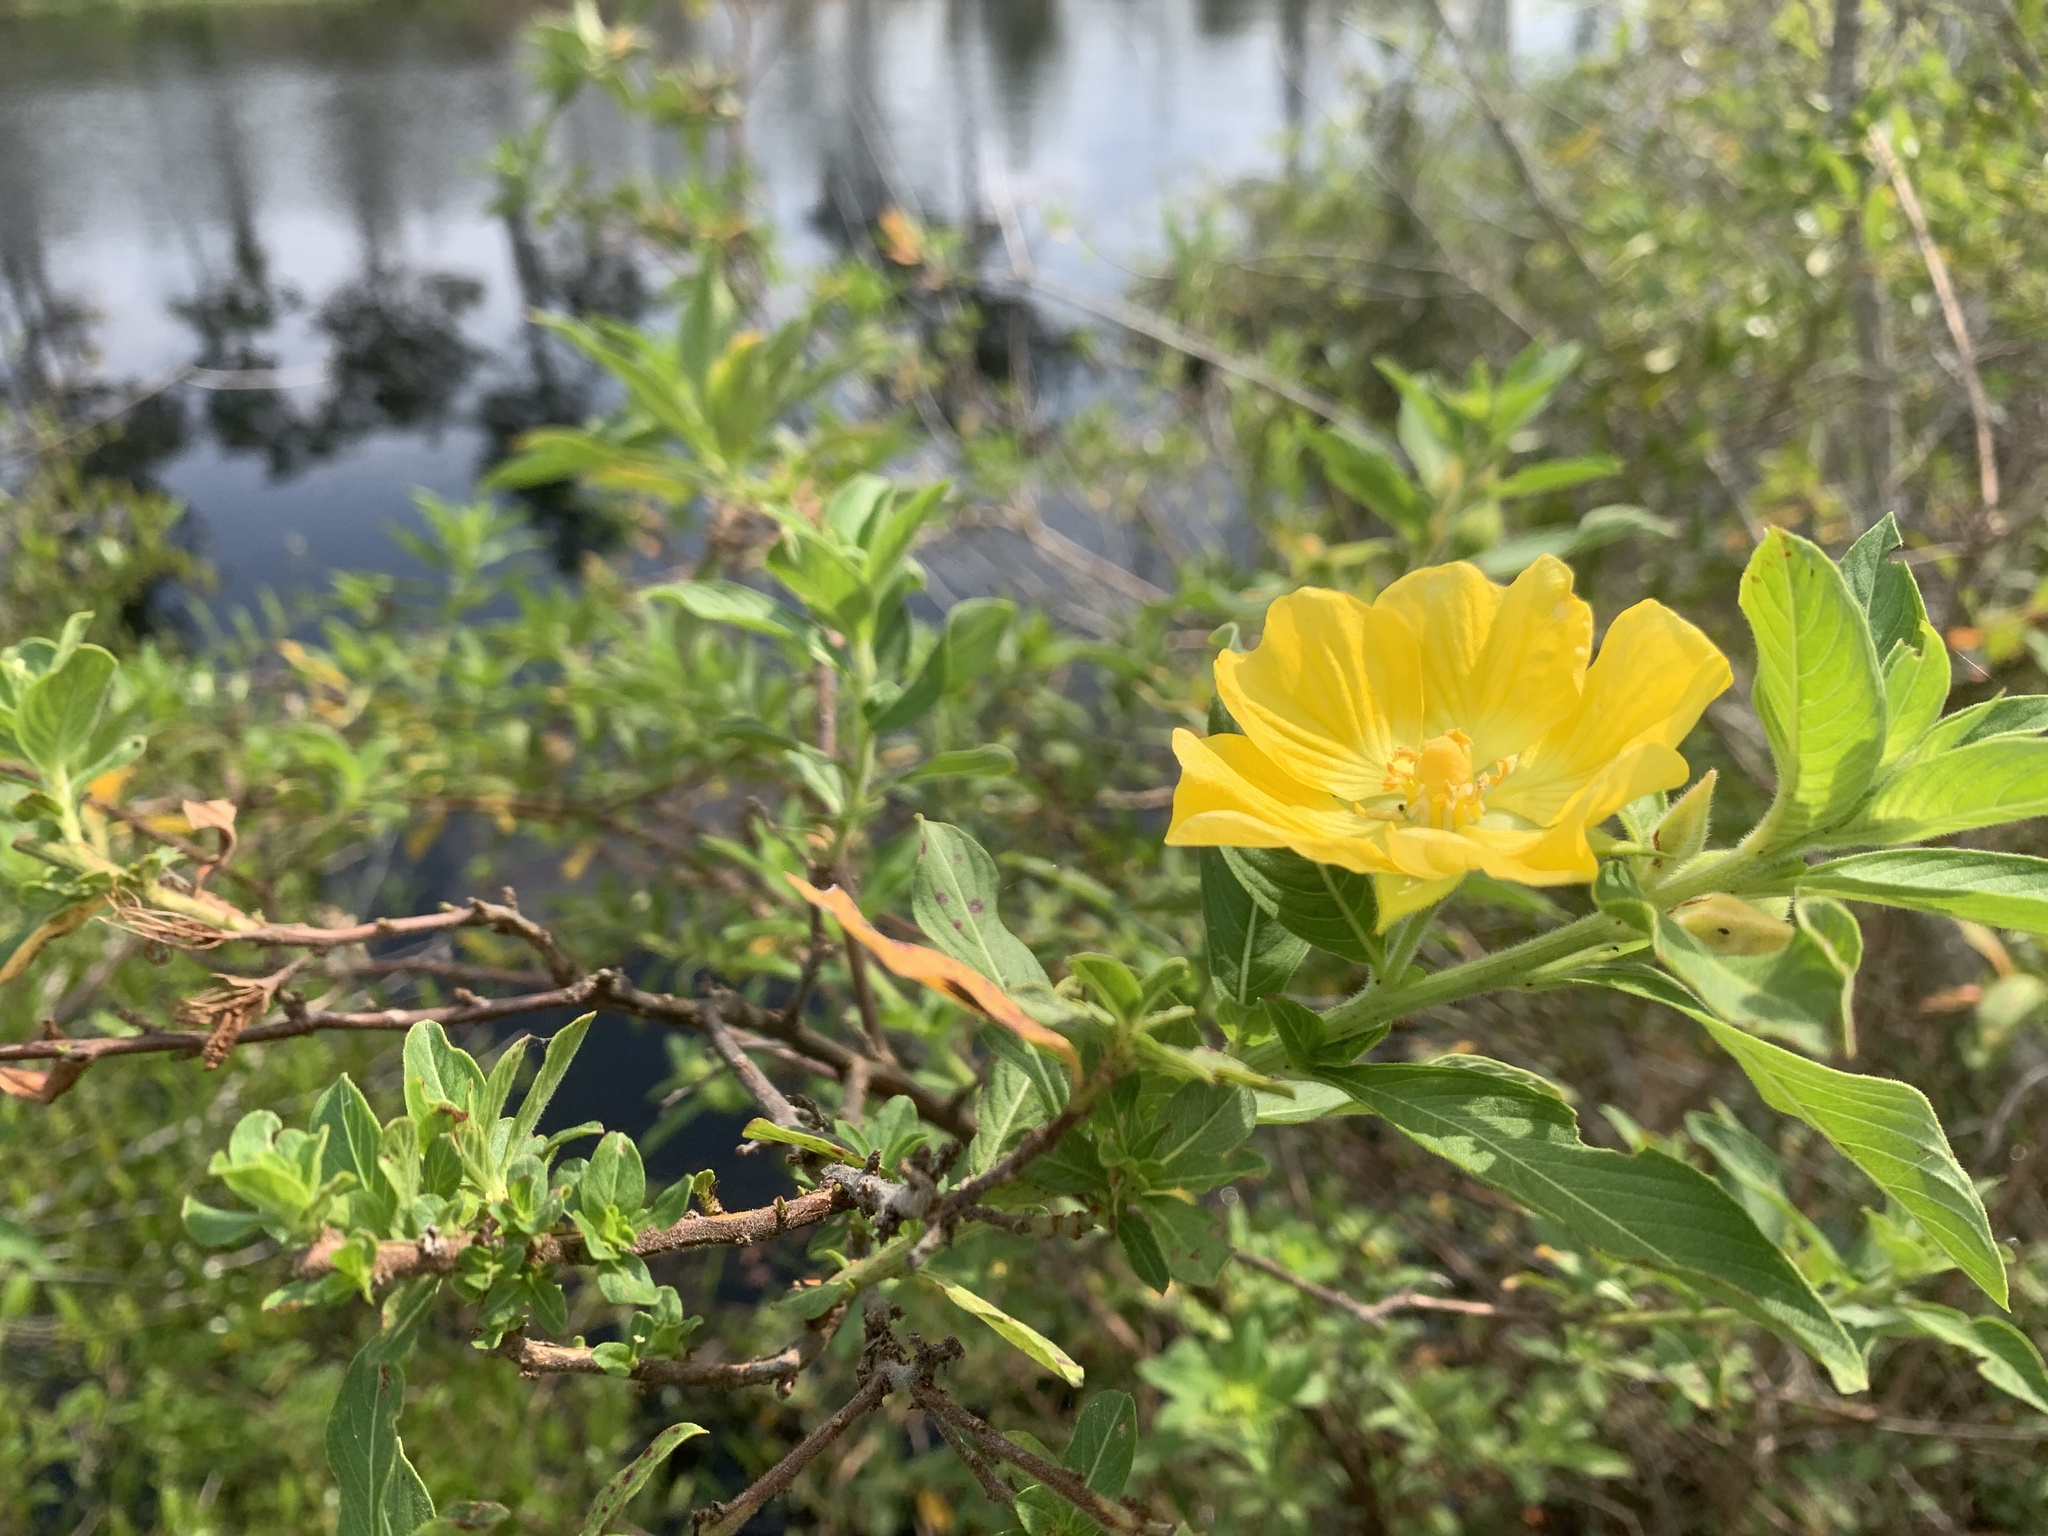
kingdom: Plantae
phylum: Tracheophyta
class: Magnoliopsida
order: Myrtales
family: Onagraceae
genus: Ludwigia
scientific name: Ludwigia peruviana
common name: Peruvian primrose-willow
